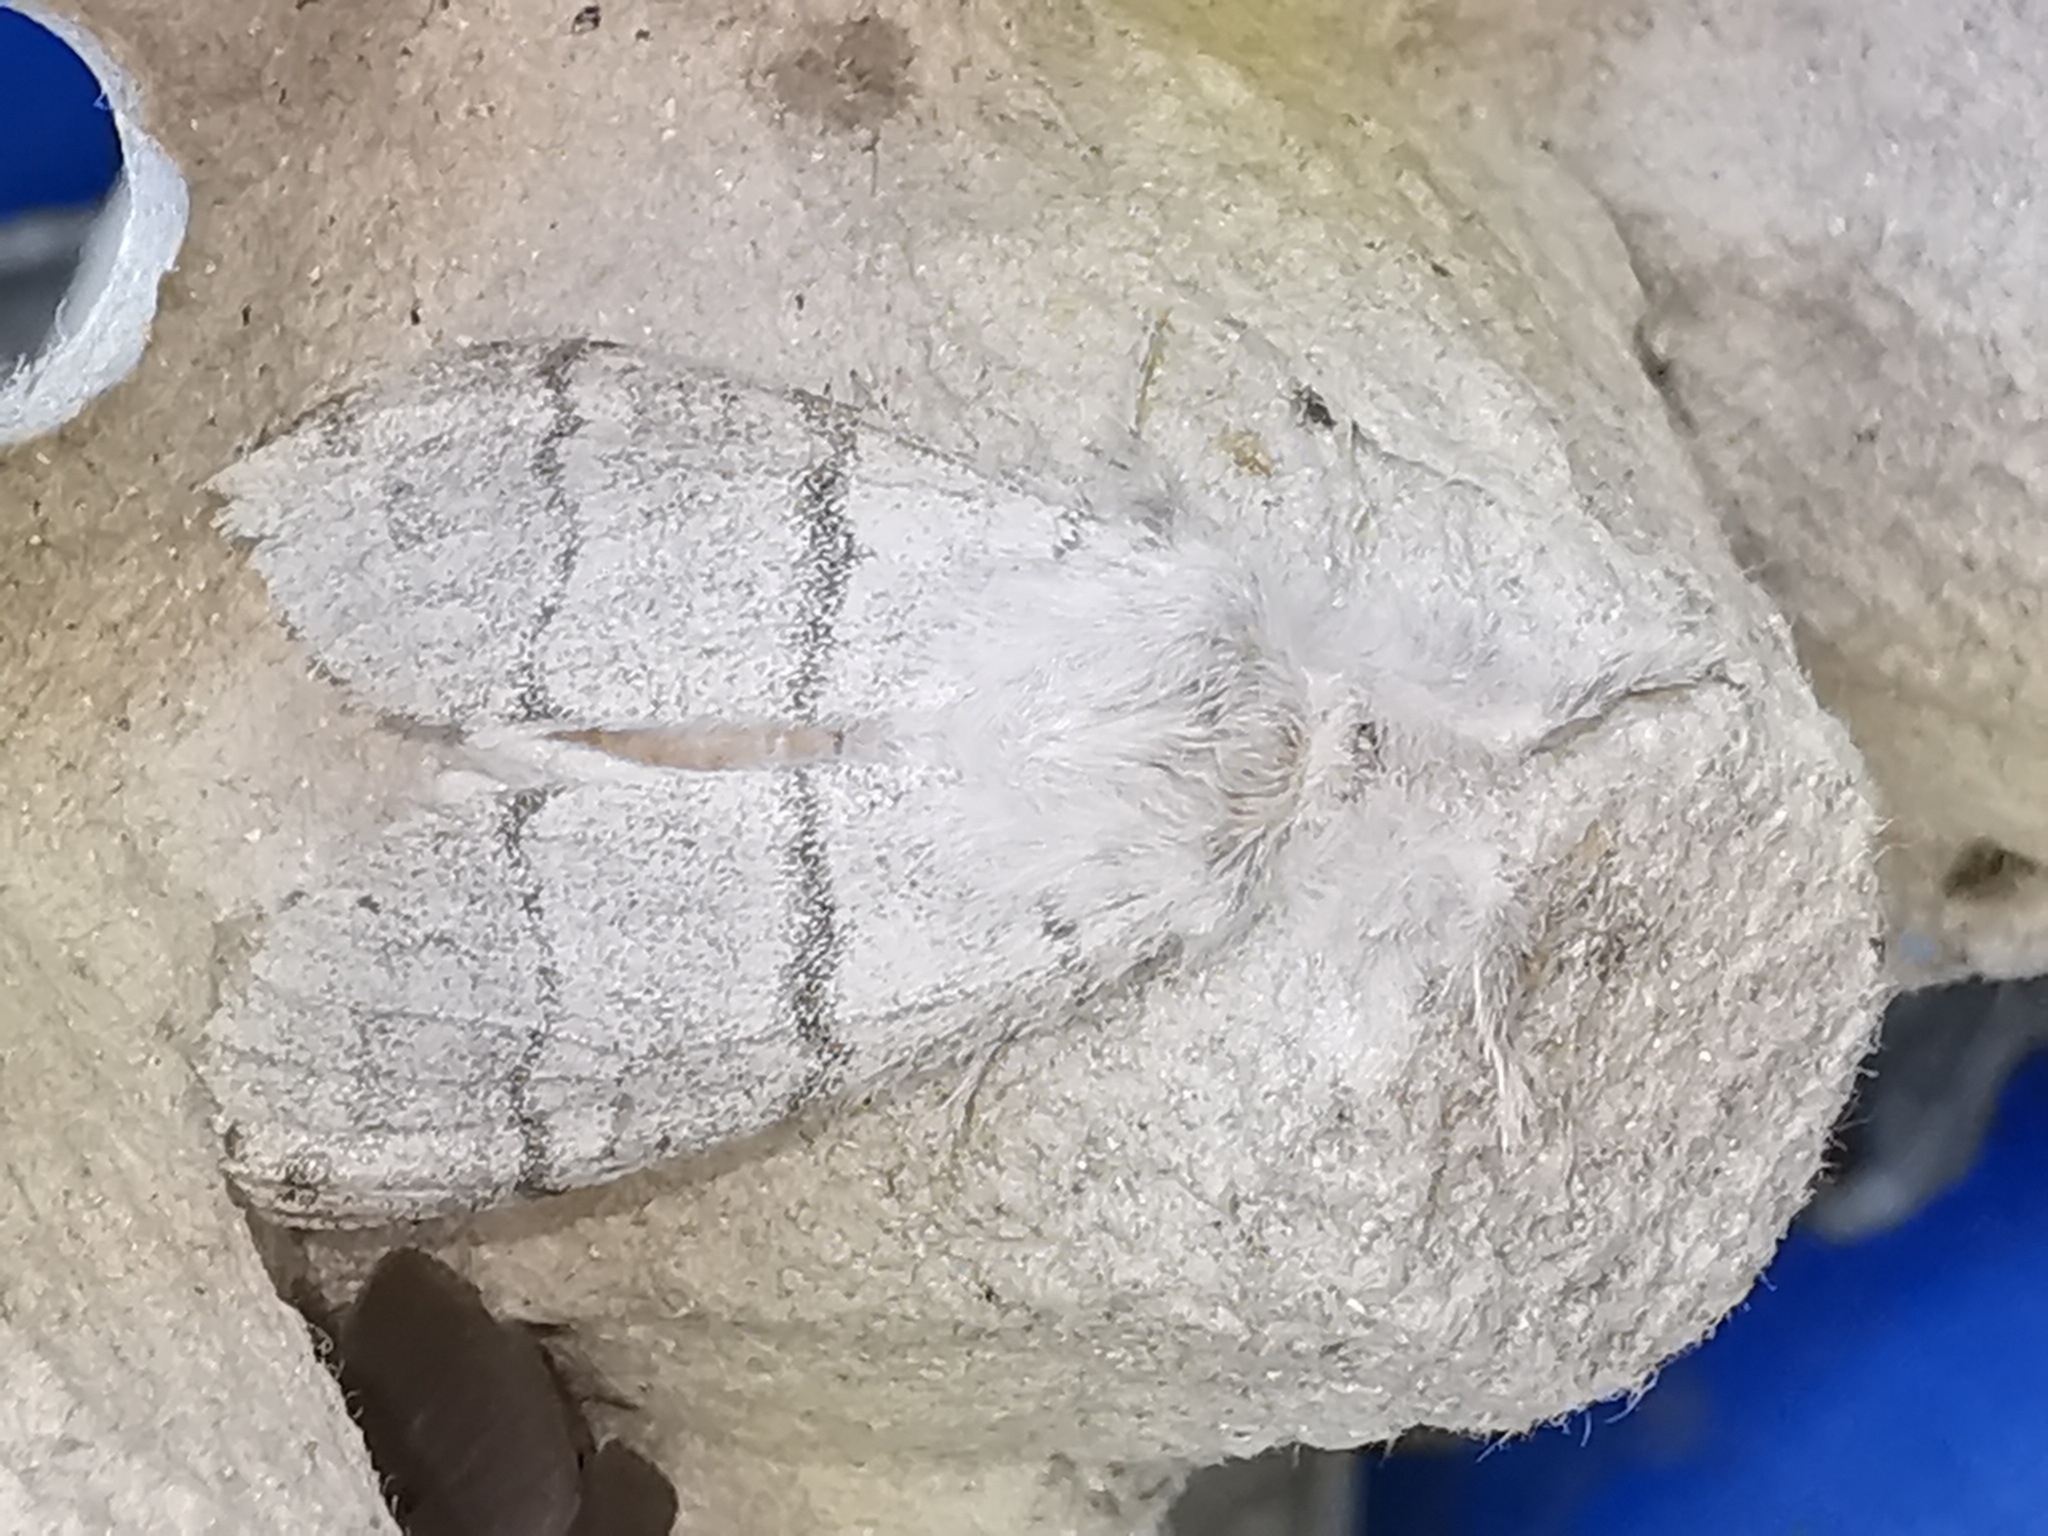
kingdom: Animalia
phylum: Arthropoda
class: Insecta
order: Lepidoptera
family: Erebidae
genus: Calliteara
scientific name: Calliteara pudibunda
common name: Pale tussock
